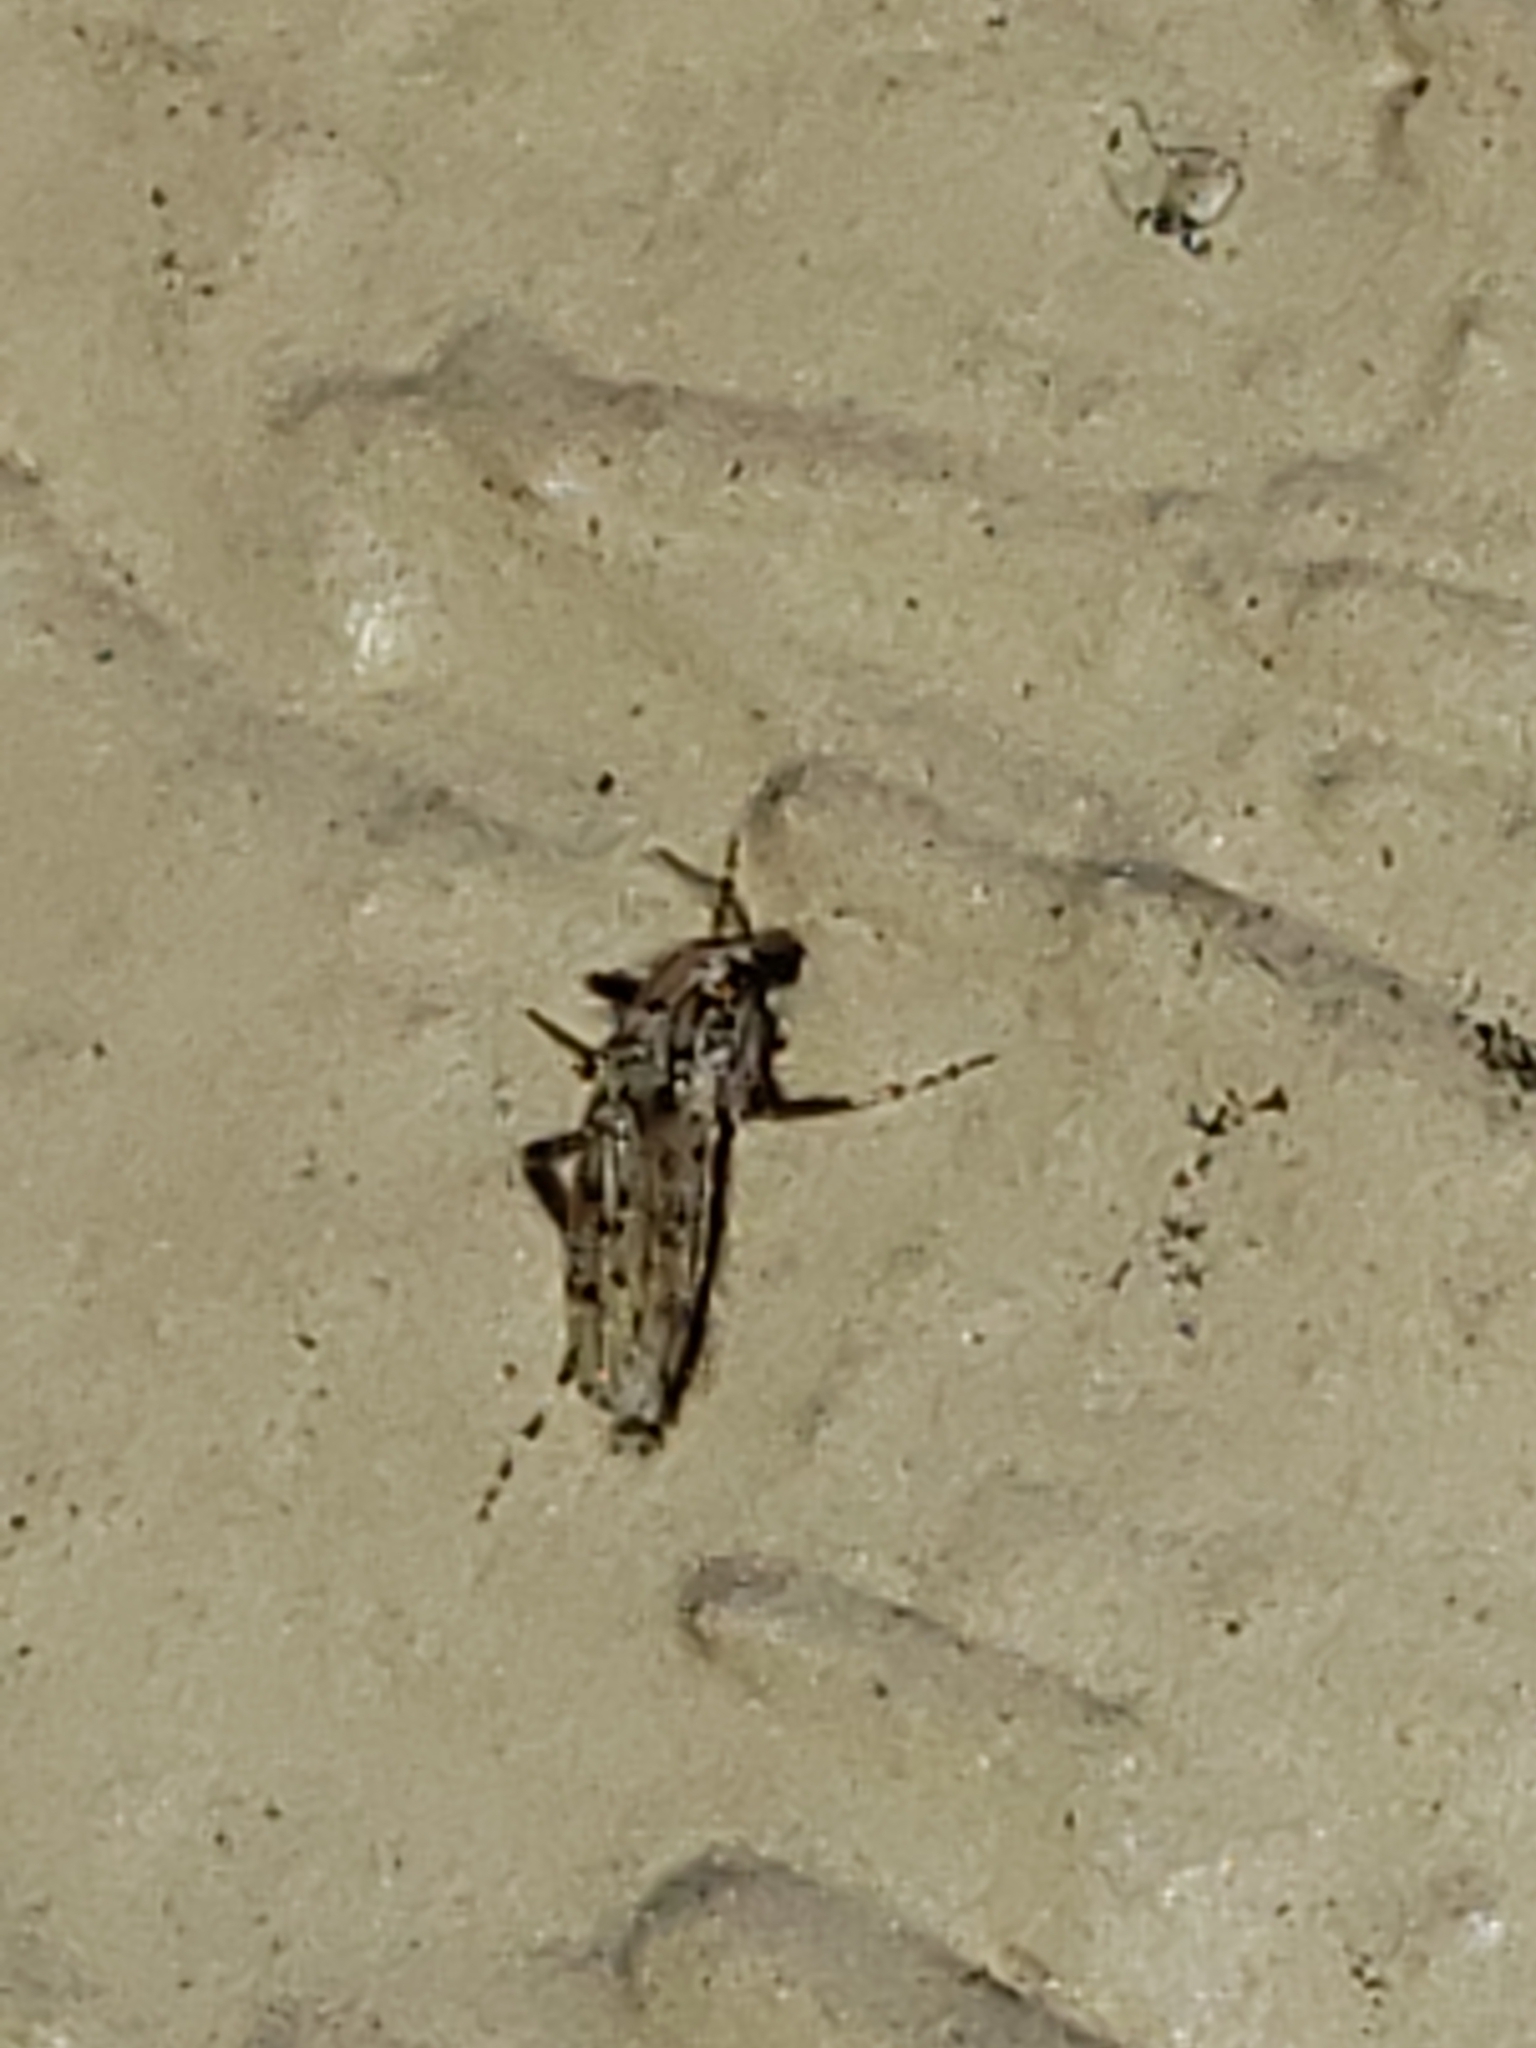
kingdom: Animalia
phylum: Arthropoda
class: Insecta
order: Diptera
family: Chaoboridae
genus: Chaoborus
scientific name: Chaoborus punctipennis
